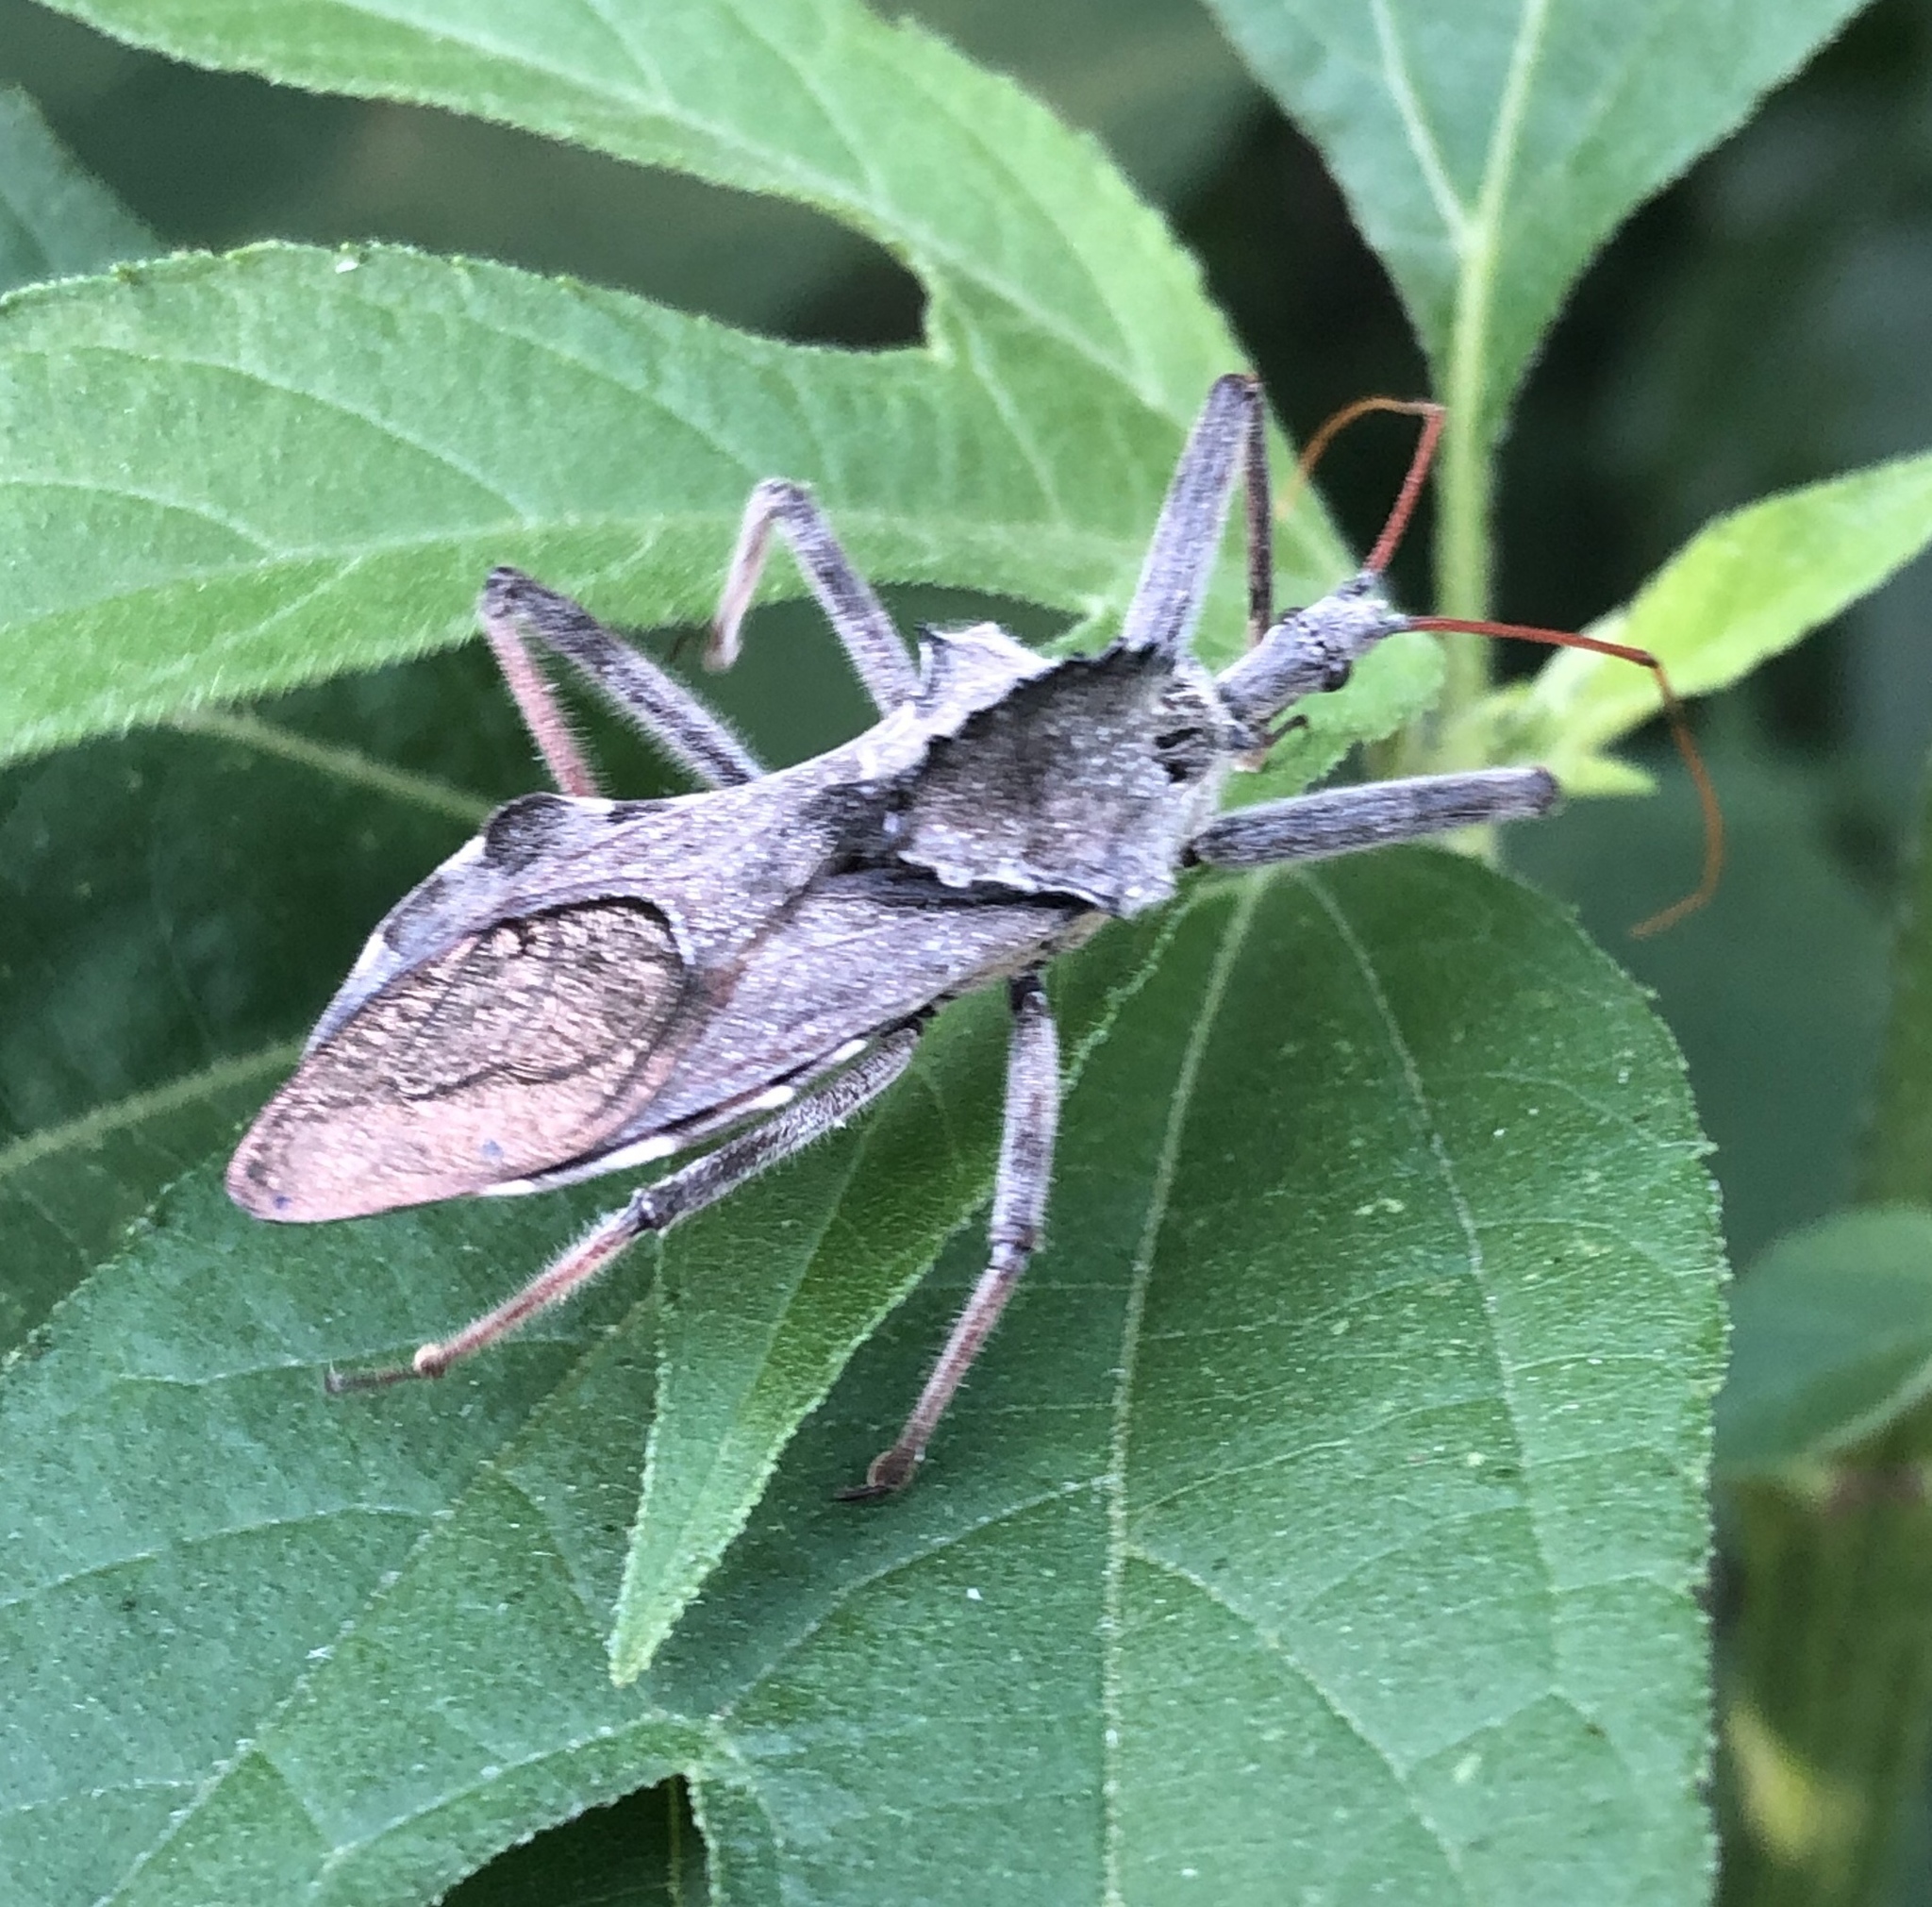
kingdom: Animalia
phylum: Arthropoda
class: Insecta
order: Hemiptera
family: Reduviidae
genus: Arilus
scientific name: Arilus cristatus
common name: North american wheel bug
